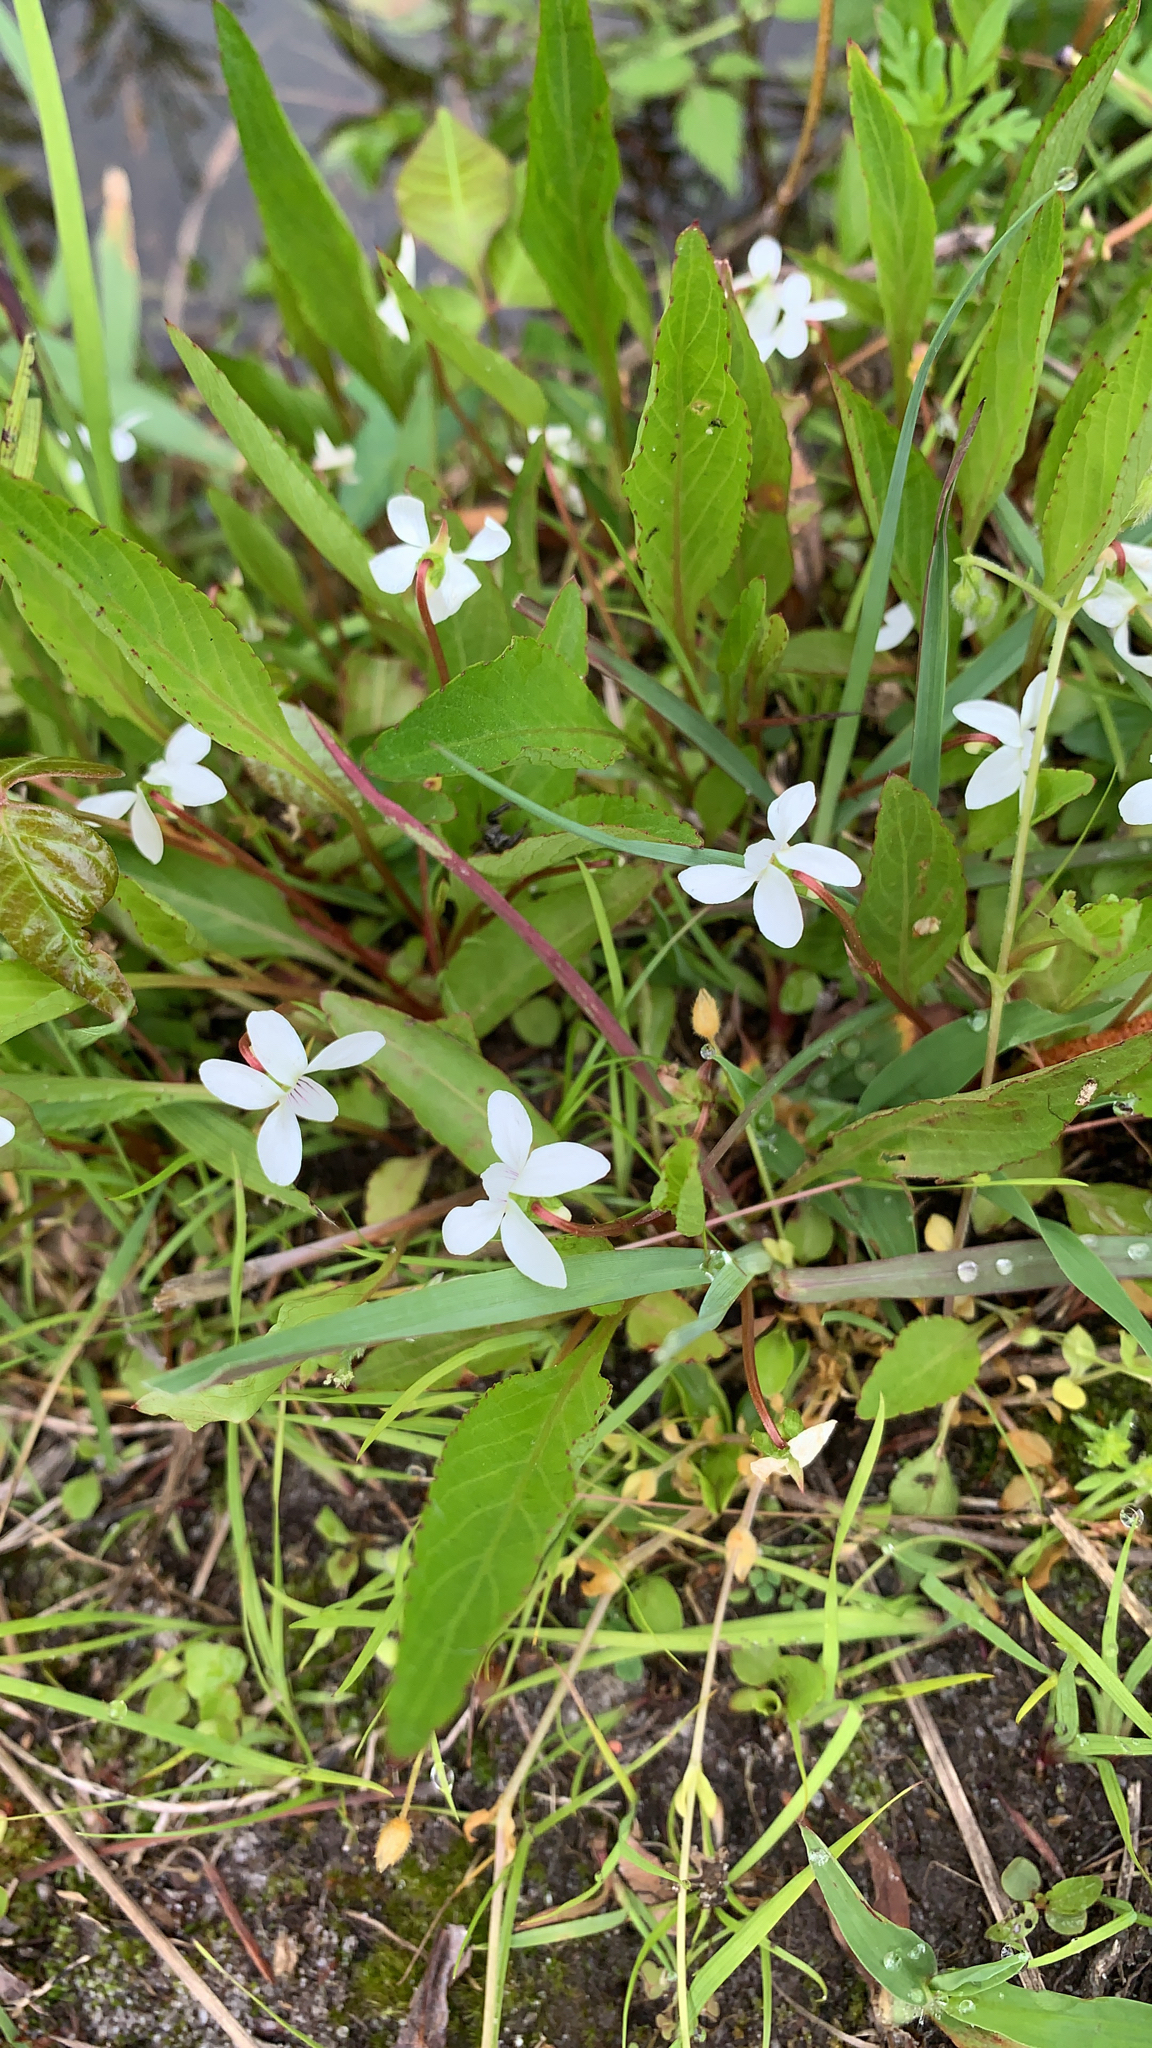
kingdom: Plantae
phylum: Tracheophyta
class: Magnoliopsida
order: Malpighiales
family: Violaceae
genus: Viola
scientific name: Viola lanceolata
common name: Bog white violet
